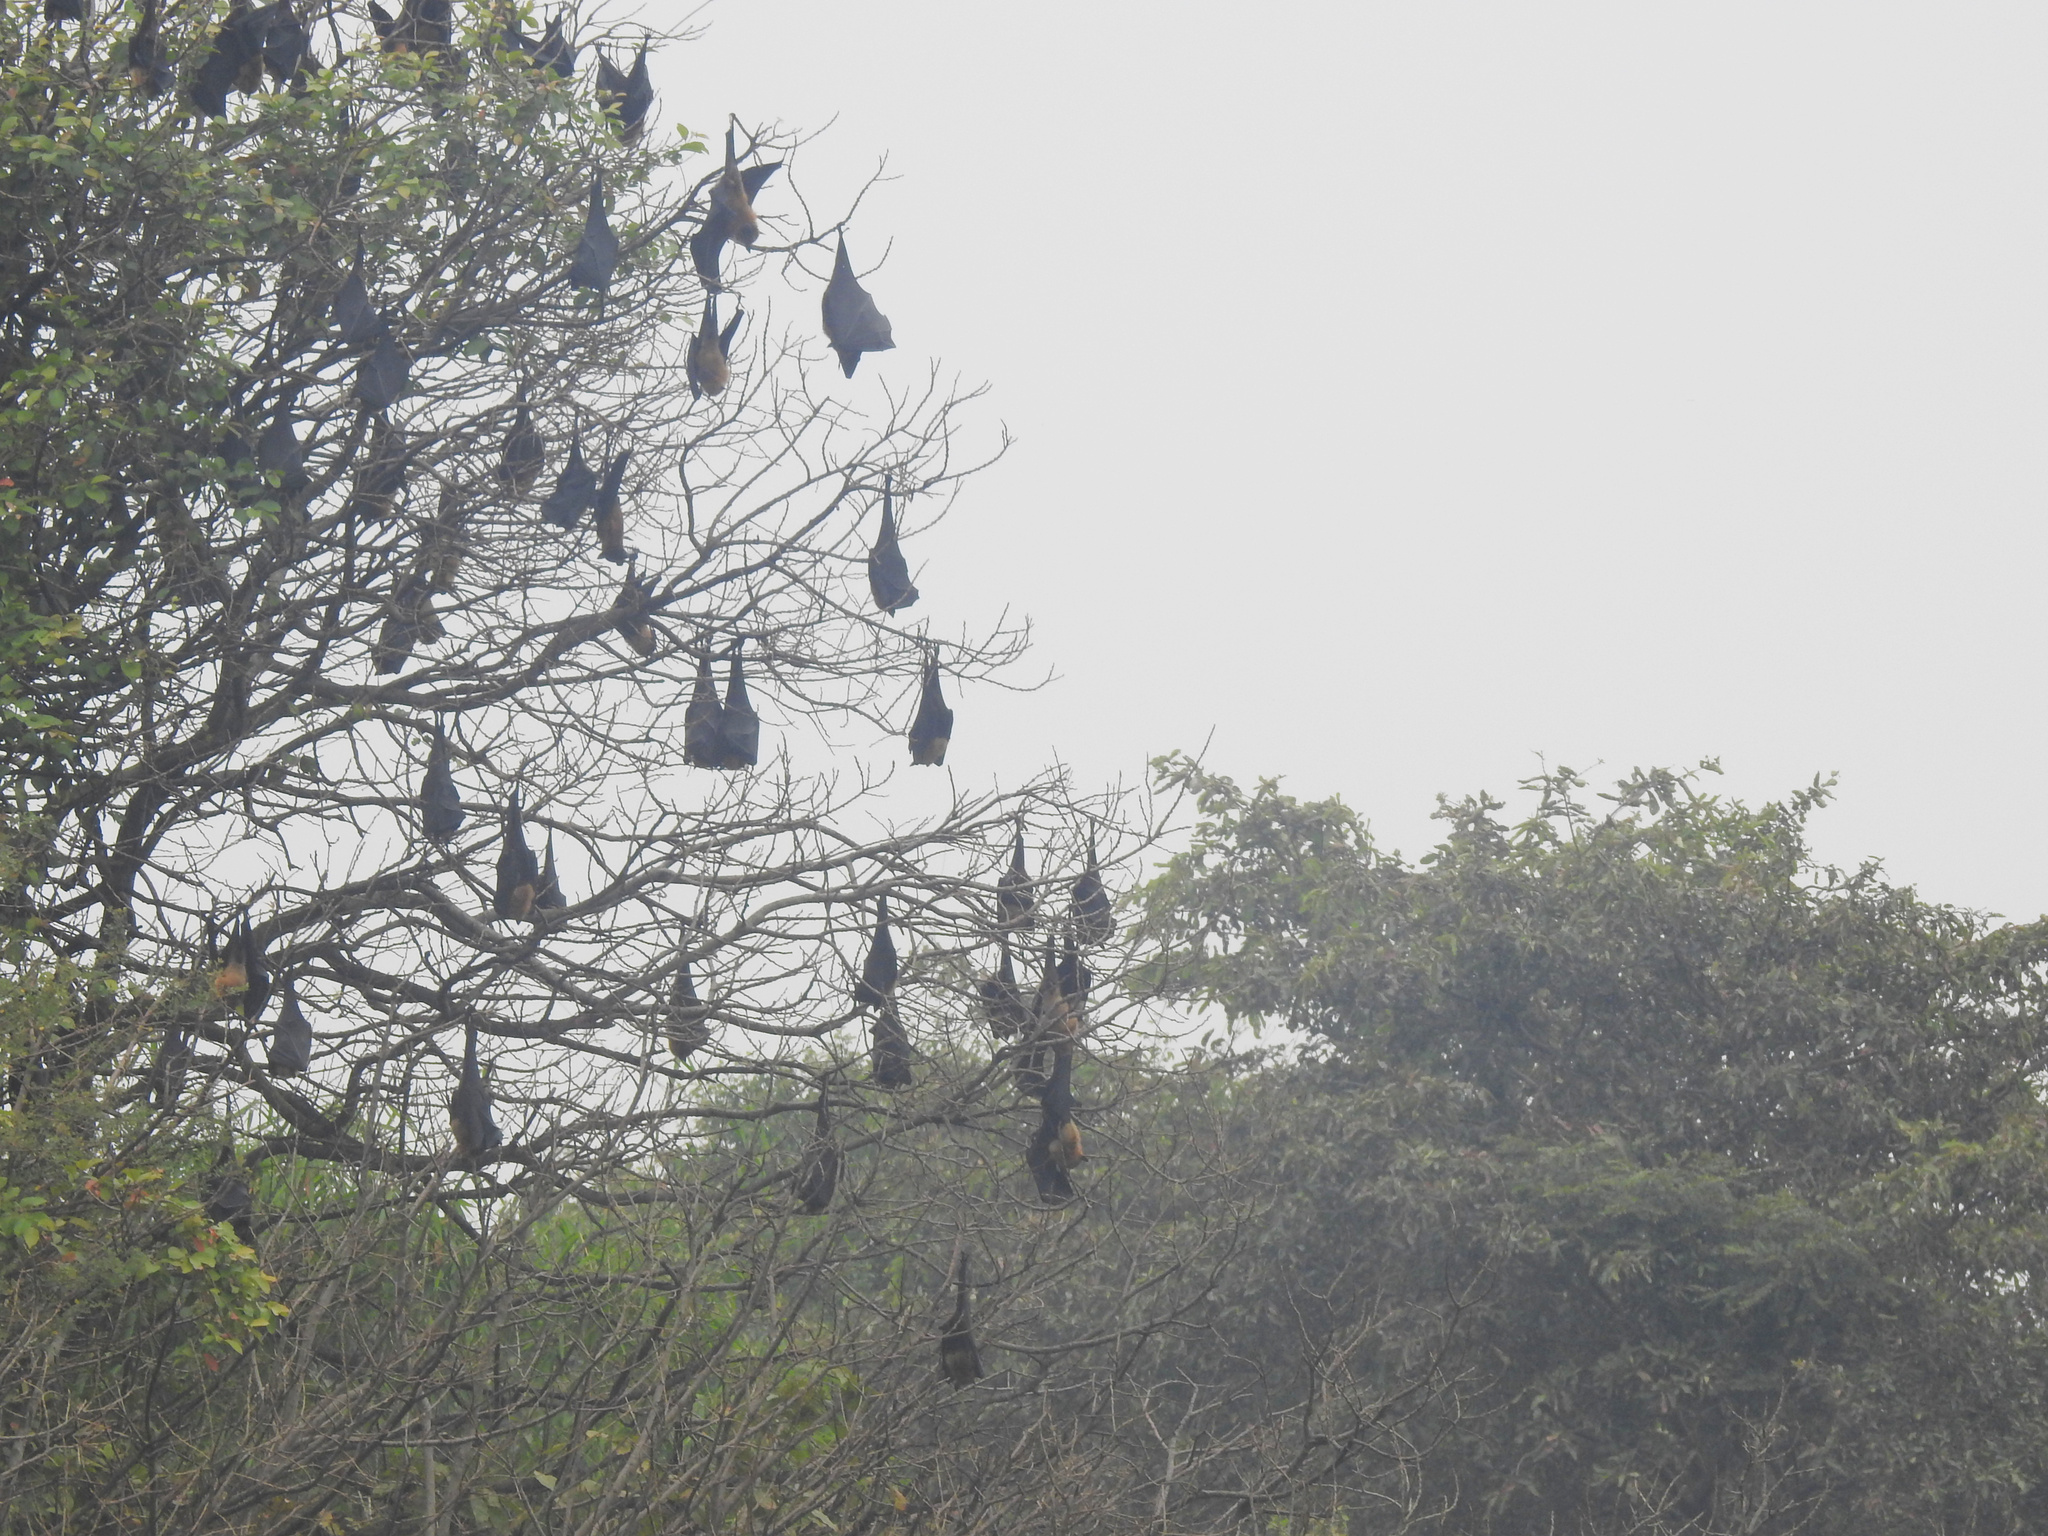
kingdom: Animalia
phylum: Chordata
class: Mammalia
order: Chiroptera
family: Pteropodidae
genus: Pteropus
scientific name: Pteropus vampyrus
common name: Large flying fox
